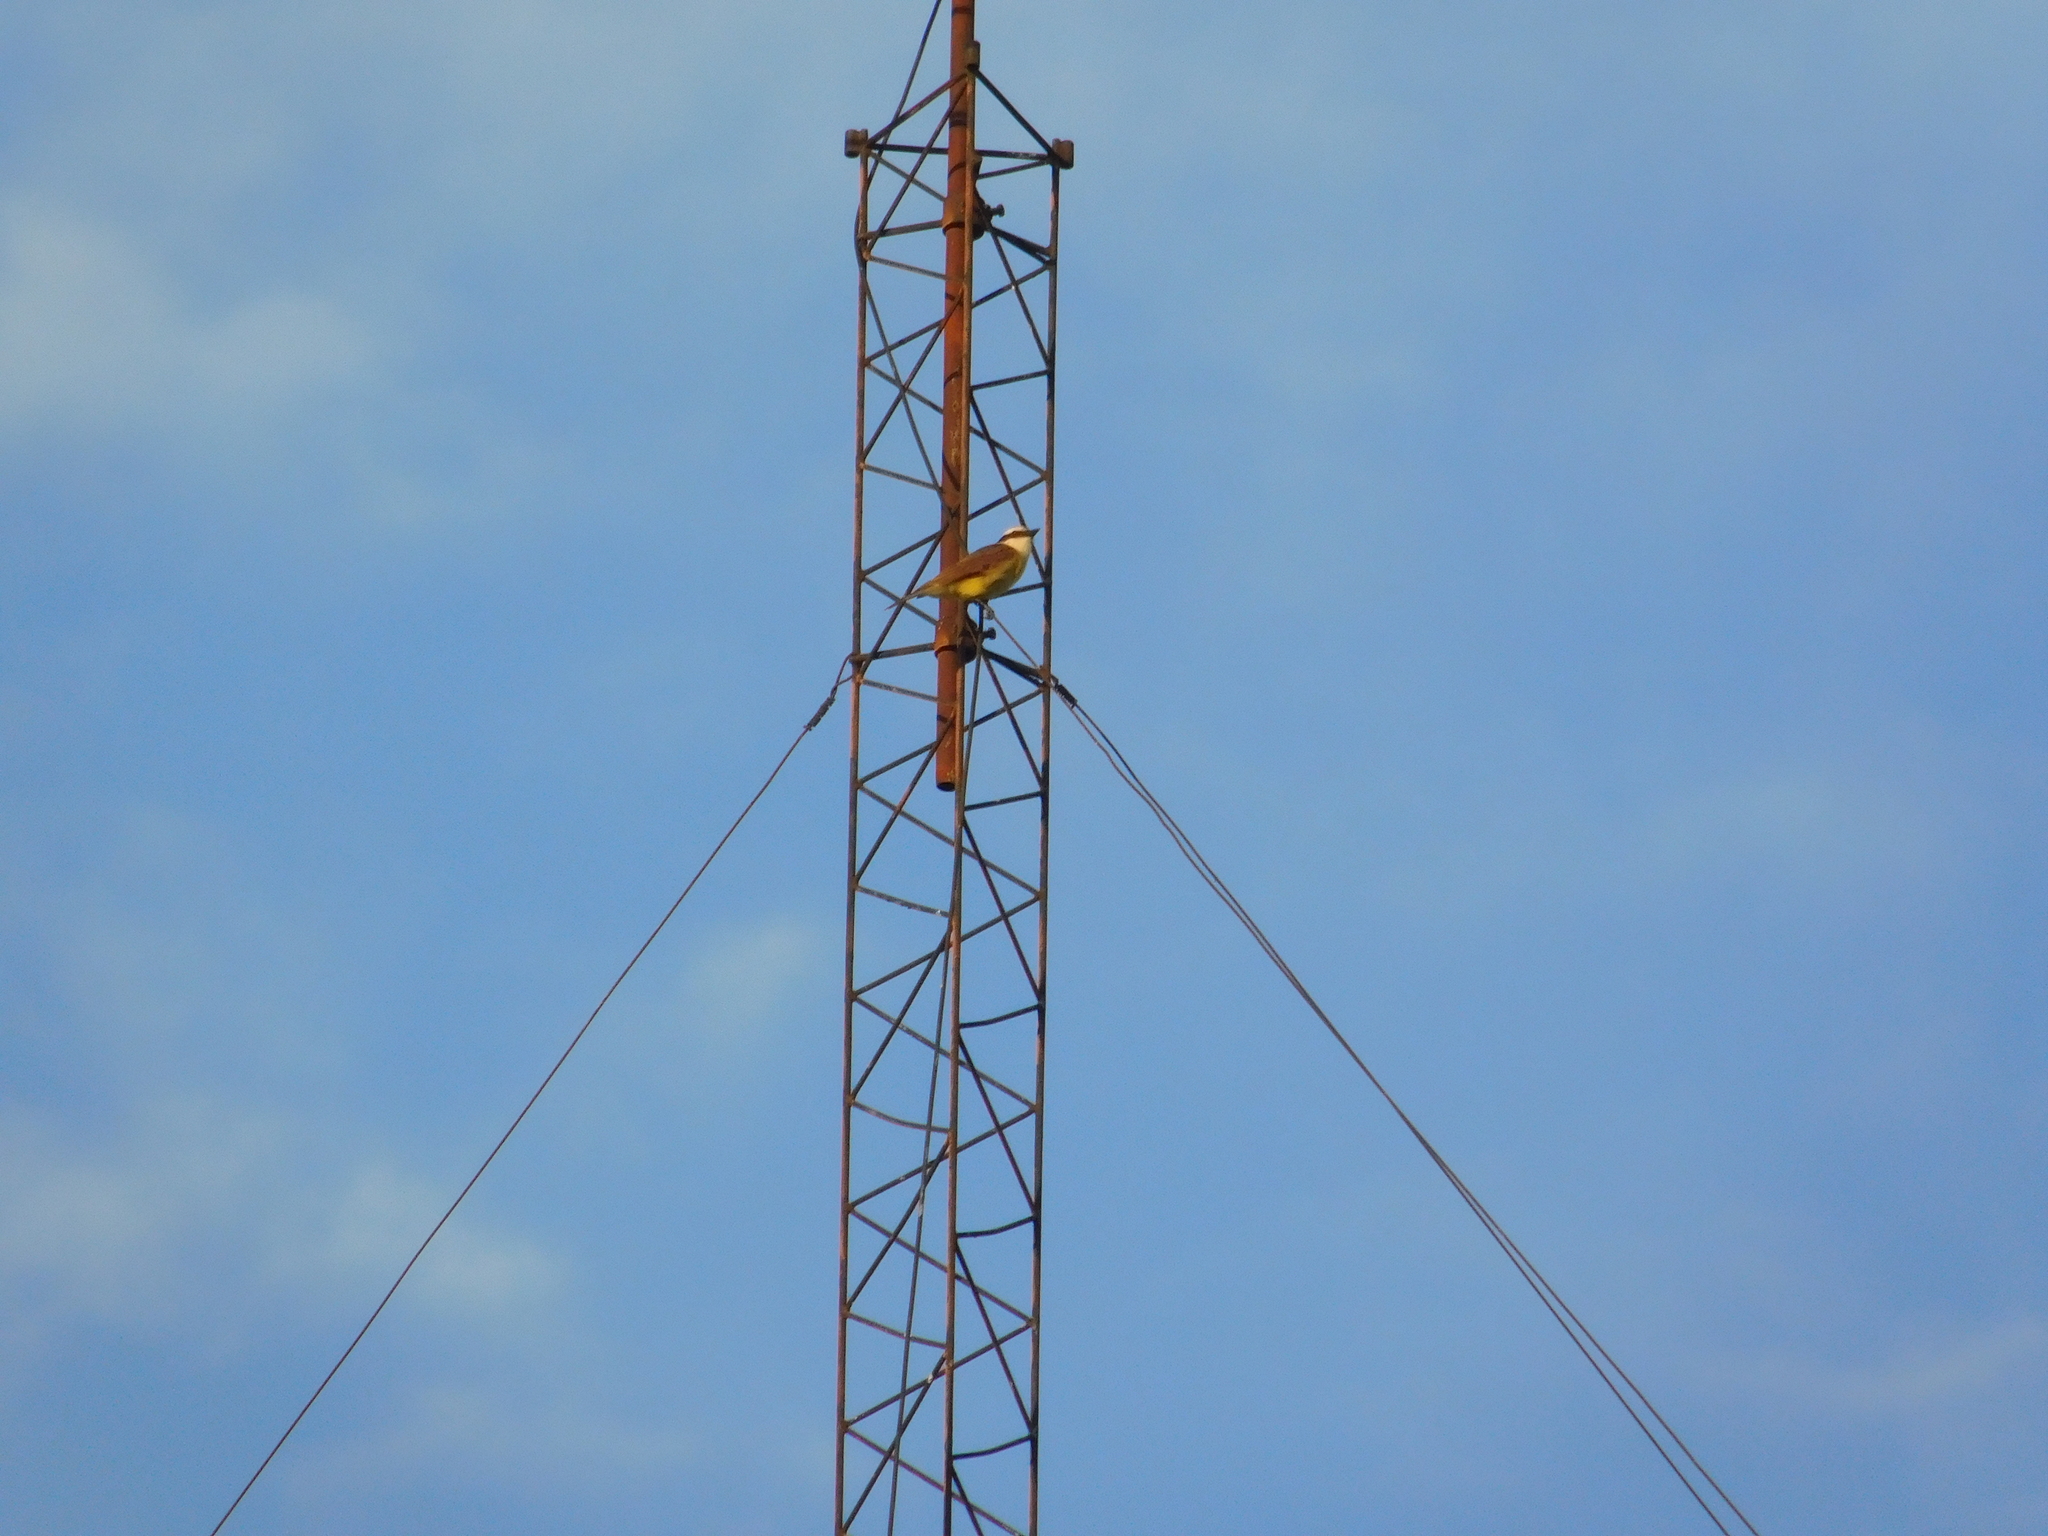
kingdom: Animalia
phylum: Chordata
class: Aves
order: Passeriformes
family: Tyrannidae
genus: Pitangus
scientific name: Pitangus sulphuratus
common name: Great kiskadee
